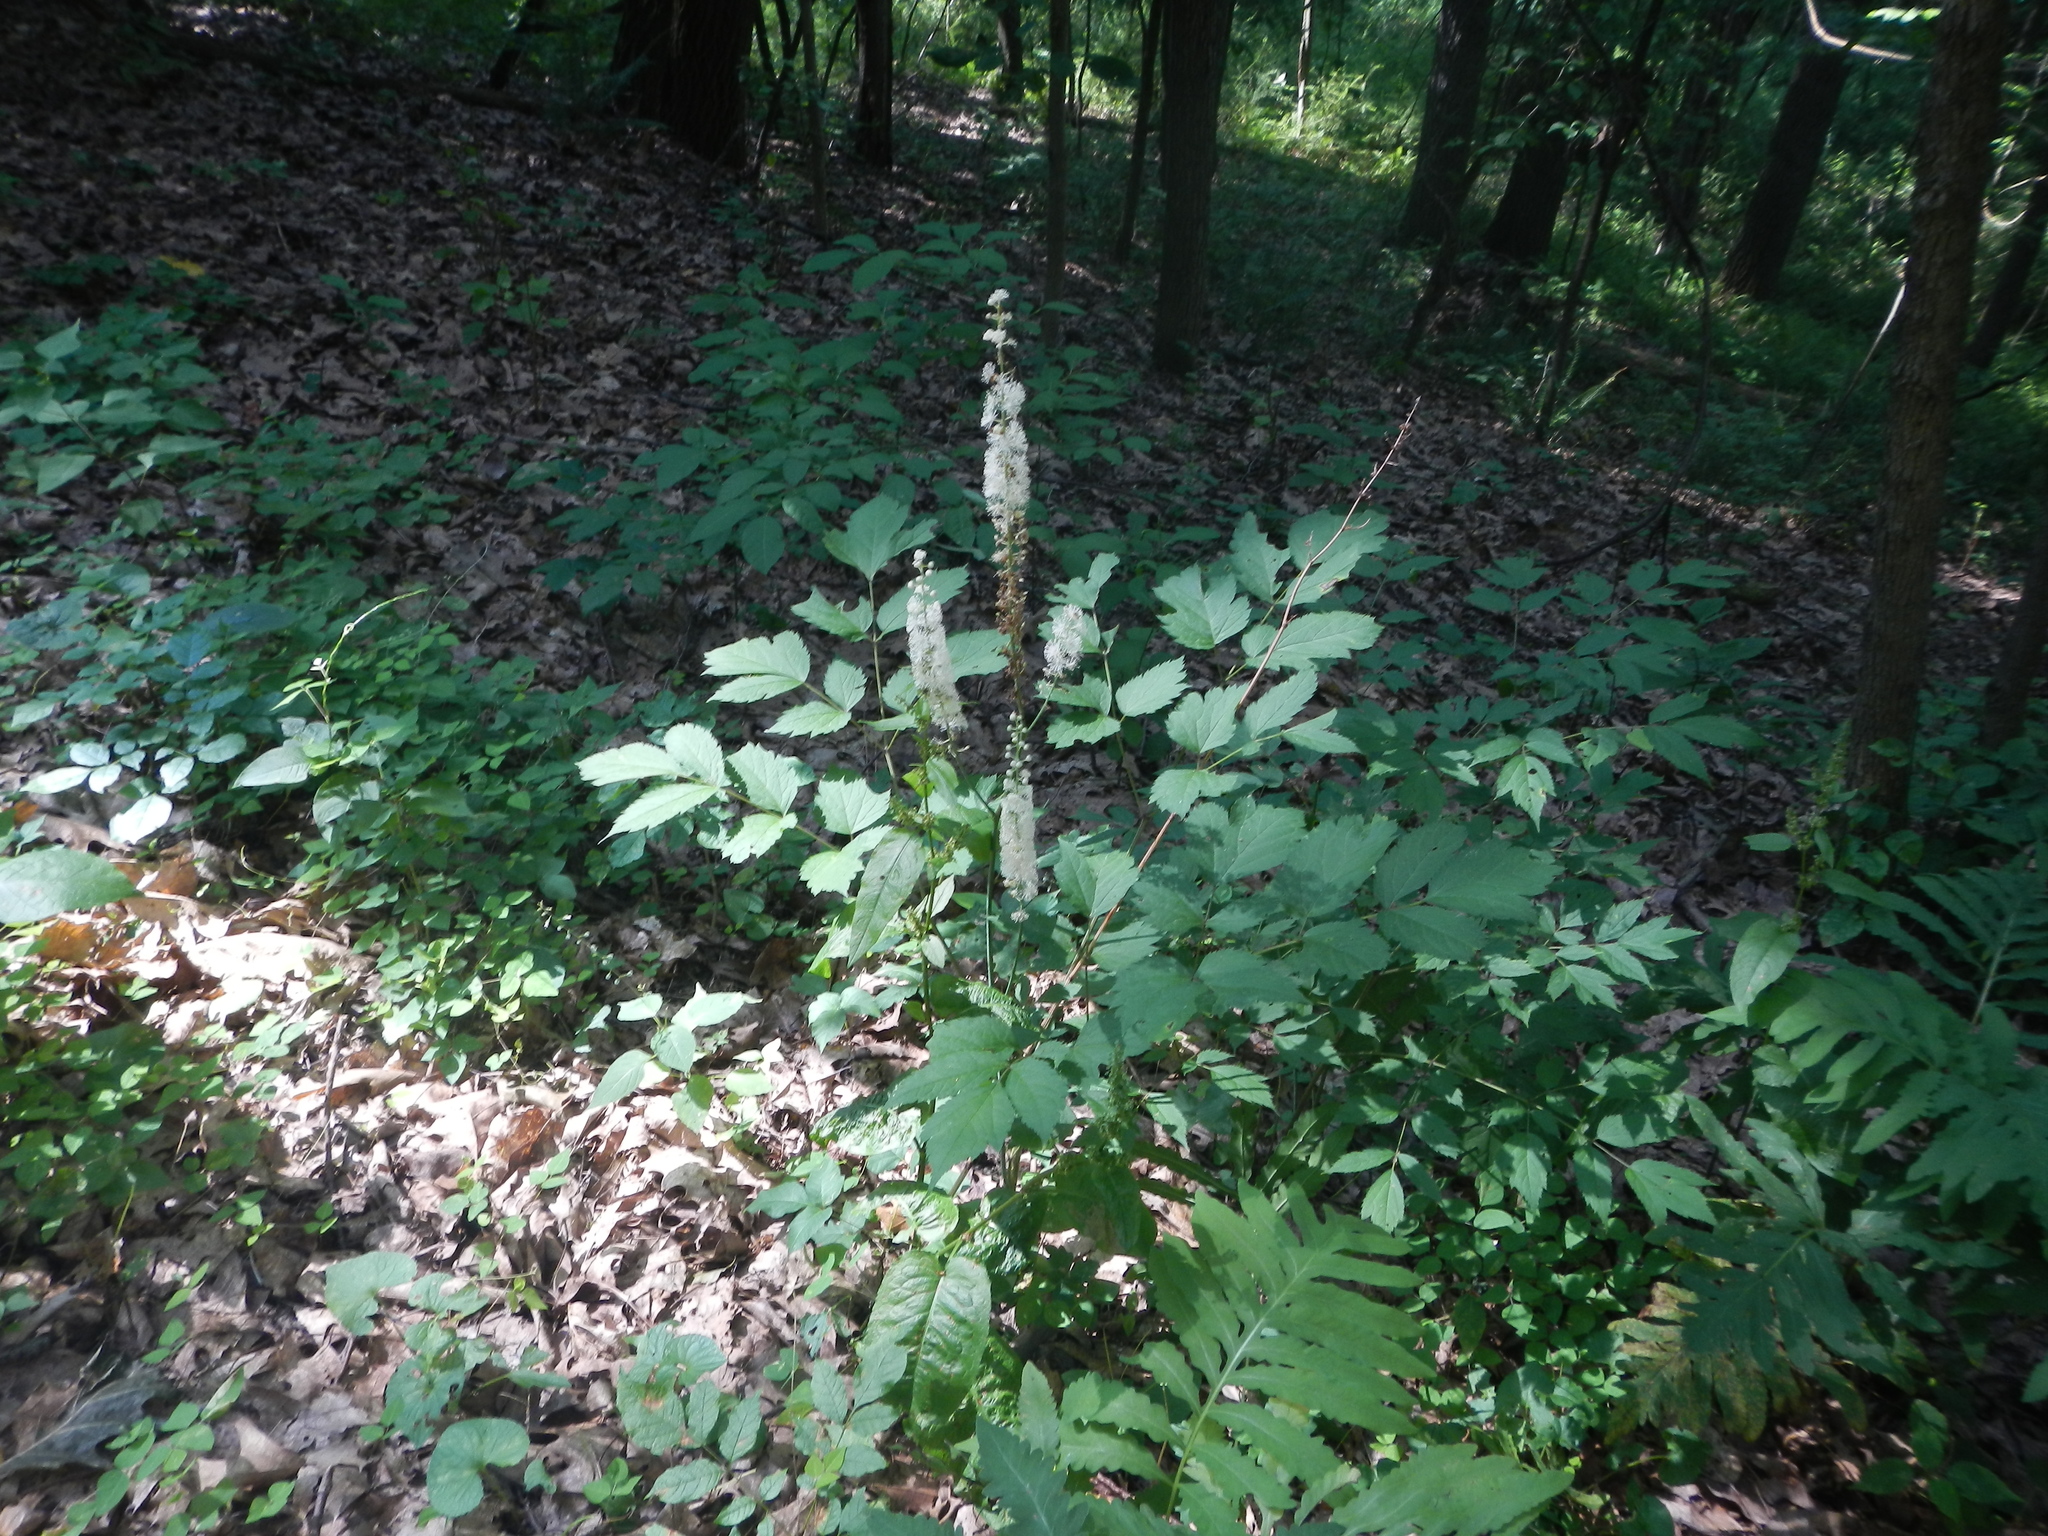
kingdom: Plantae
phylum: Tracheophyta
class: Magnoliopsida
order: Ranunculales
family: Ranunculaceae
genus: Actaea
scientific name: Actaea racemosa
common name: Black cohosh
